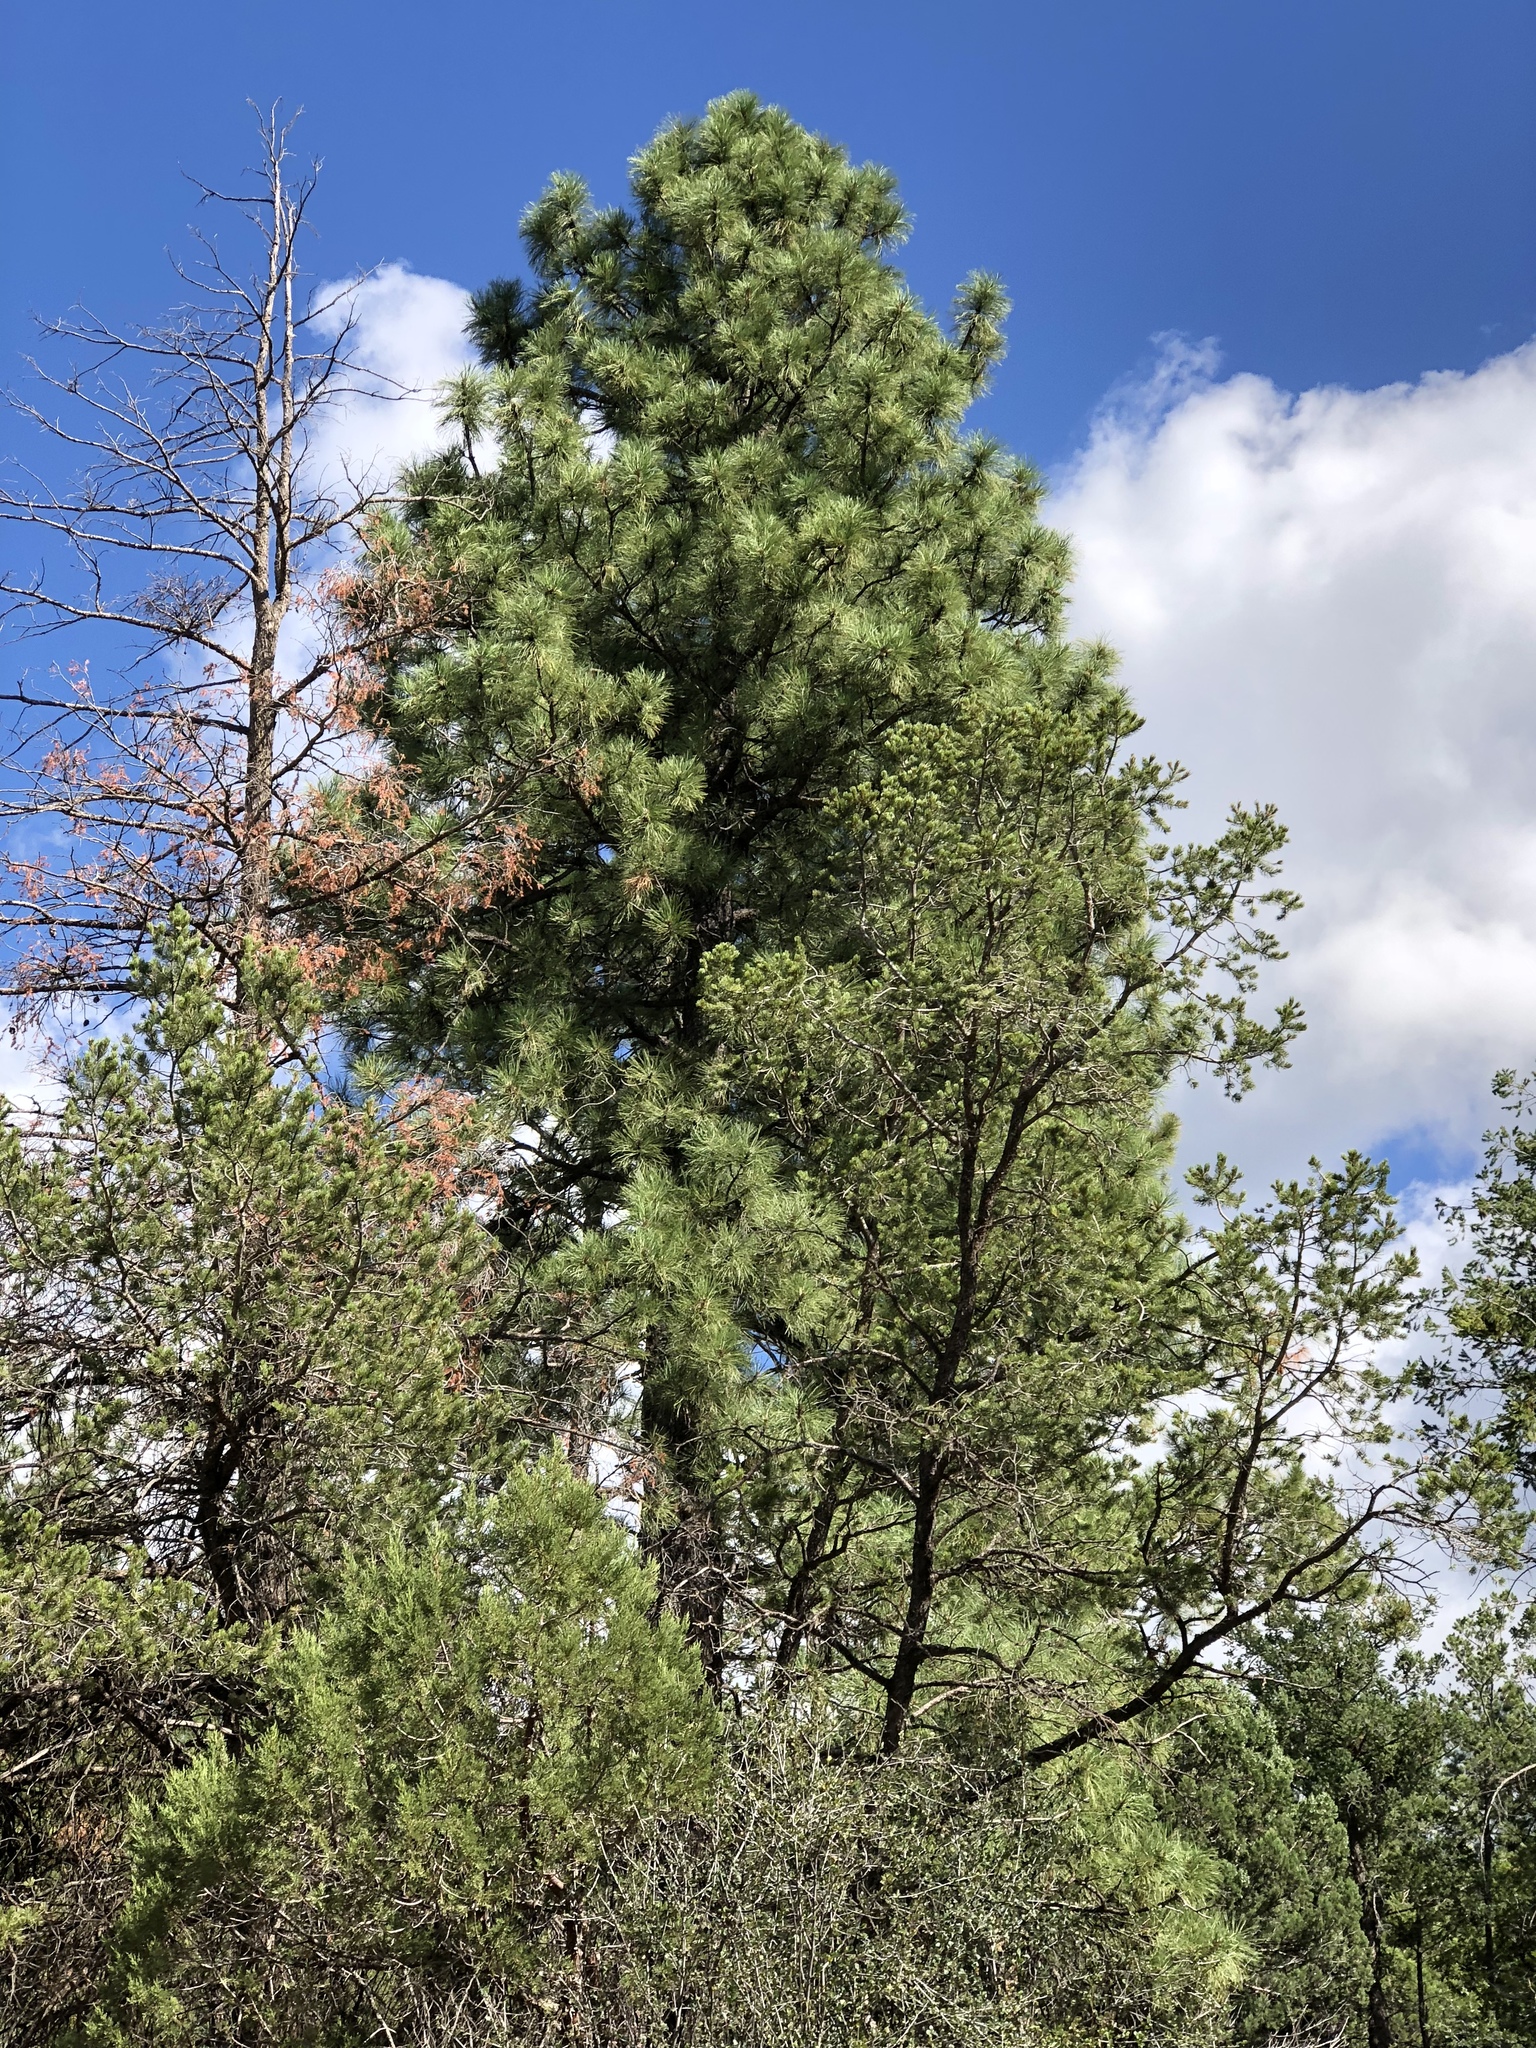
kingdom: Plantae
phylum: Tracheophyta
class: Pinopsida
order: Pinales
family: Pinaceae
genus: Pinus
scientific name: Pinus ponderosa
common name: Western yellow-pine
